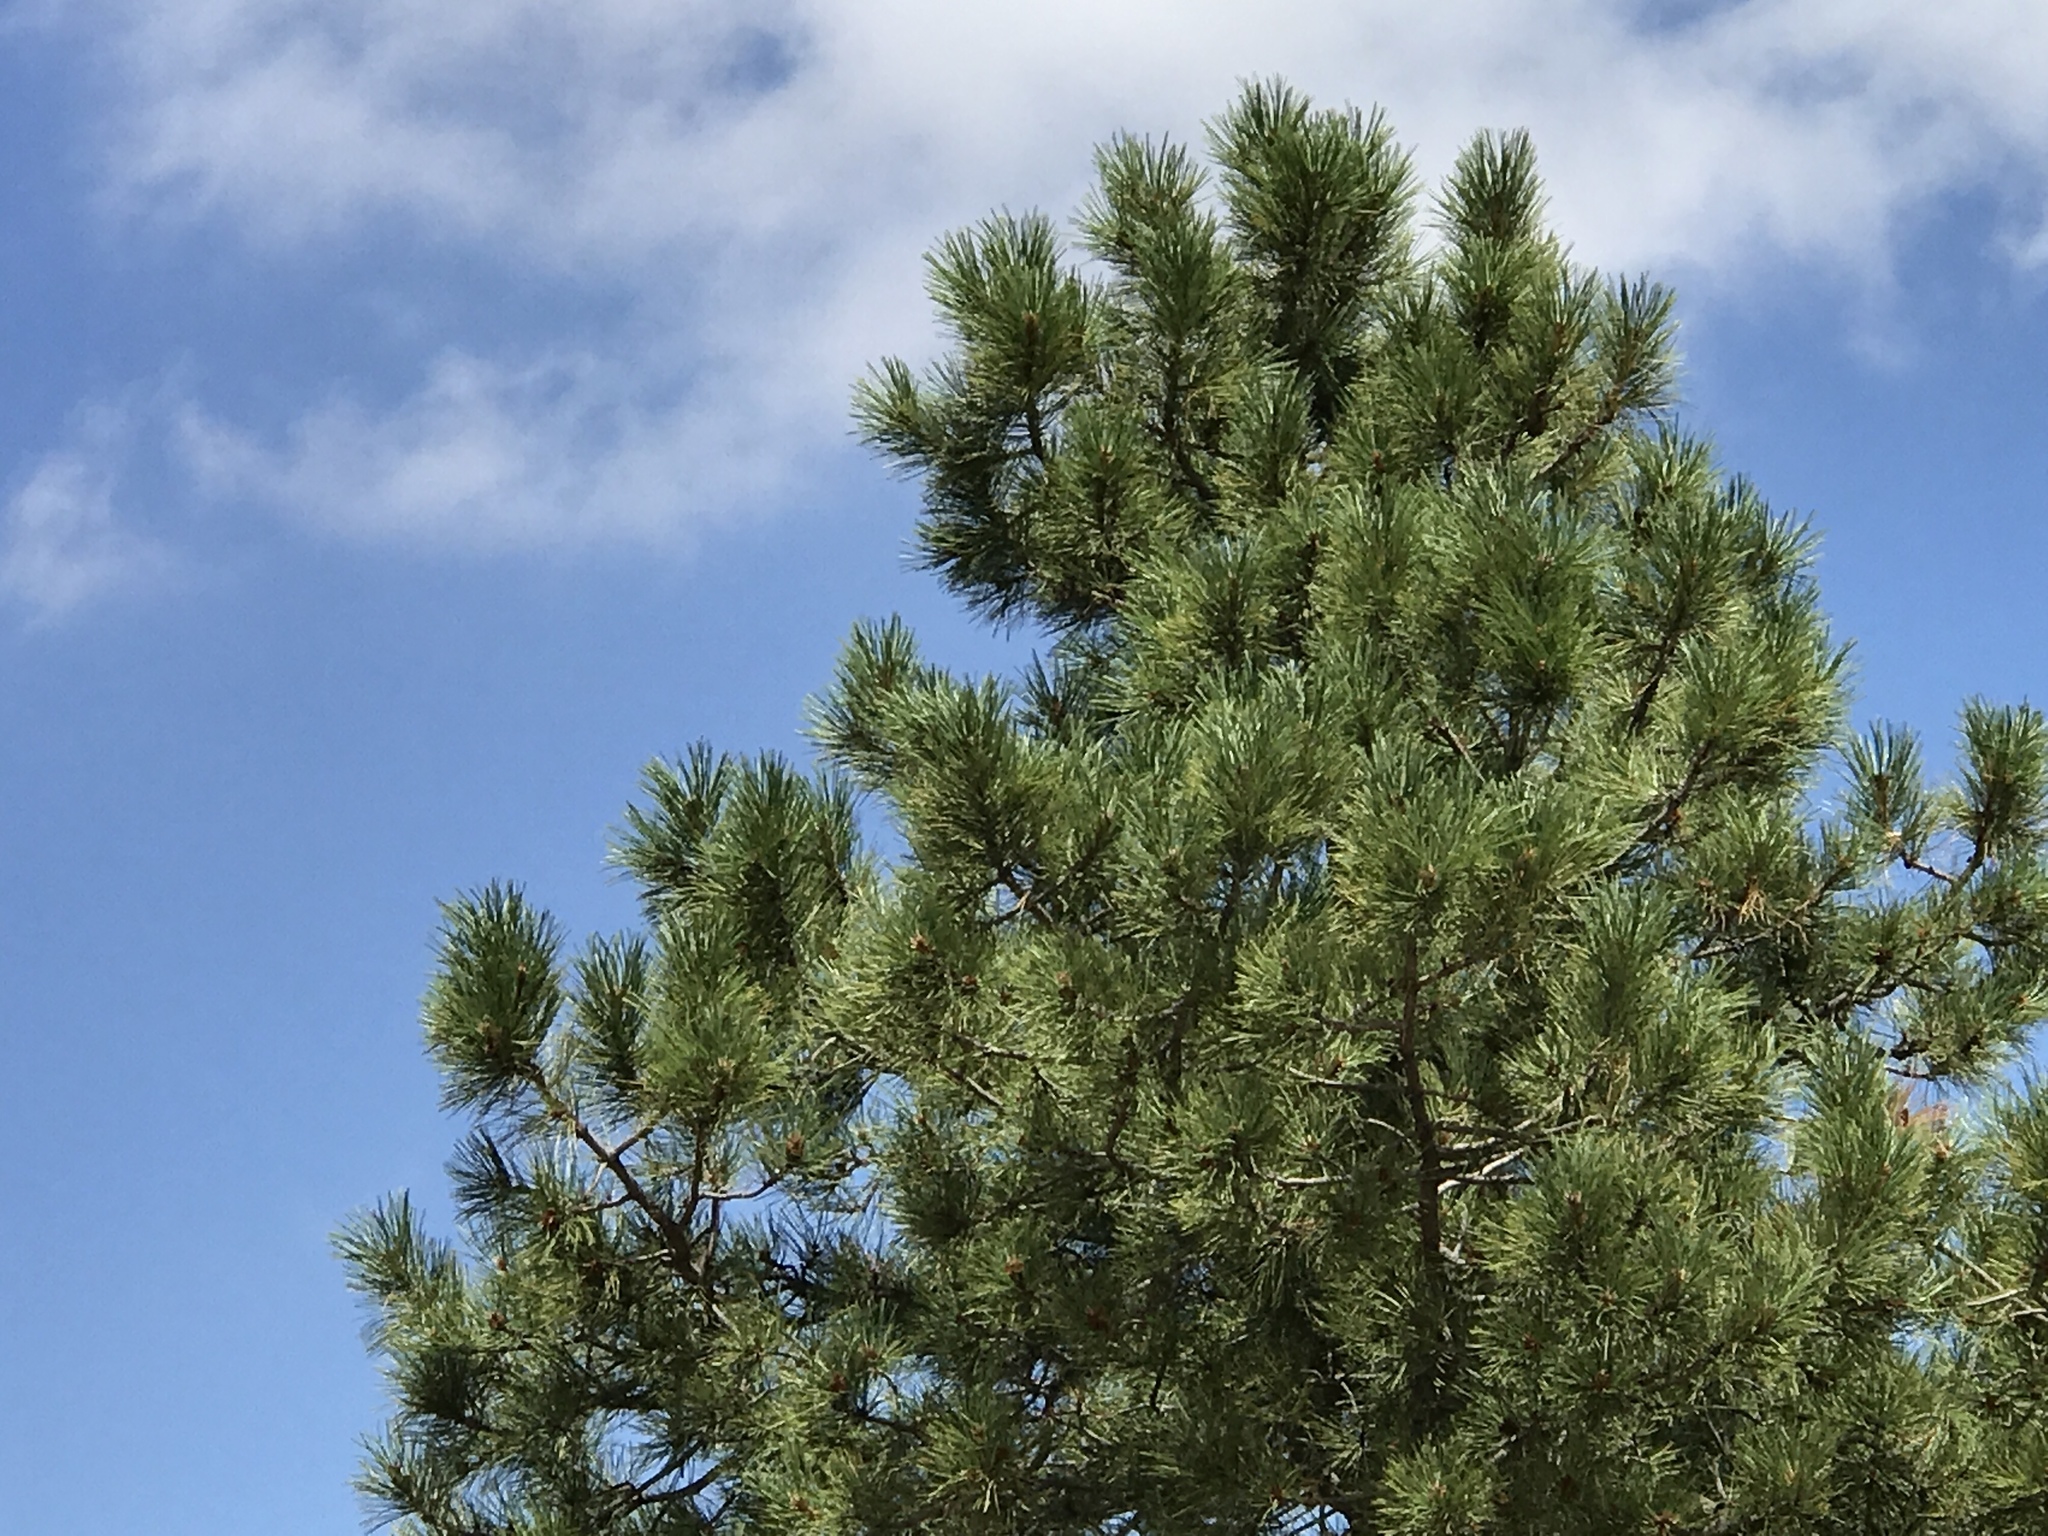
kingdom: Plantae
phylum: Tracheophyta
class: Pinopsida
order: Pinales
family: Pinaceae
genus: Pinus
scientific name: Pinus ponderosa
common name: Western yellow-pine
